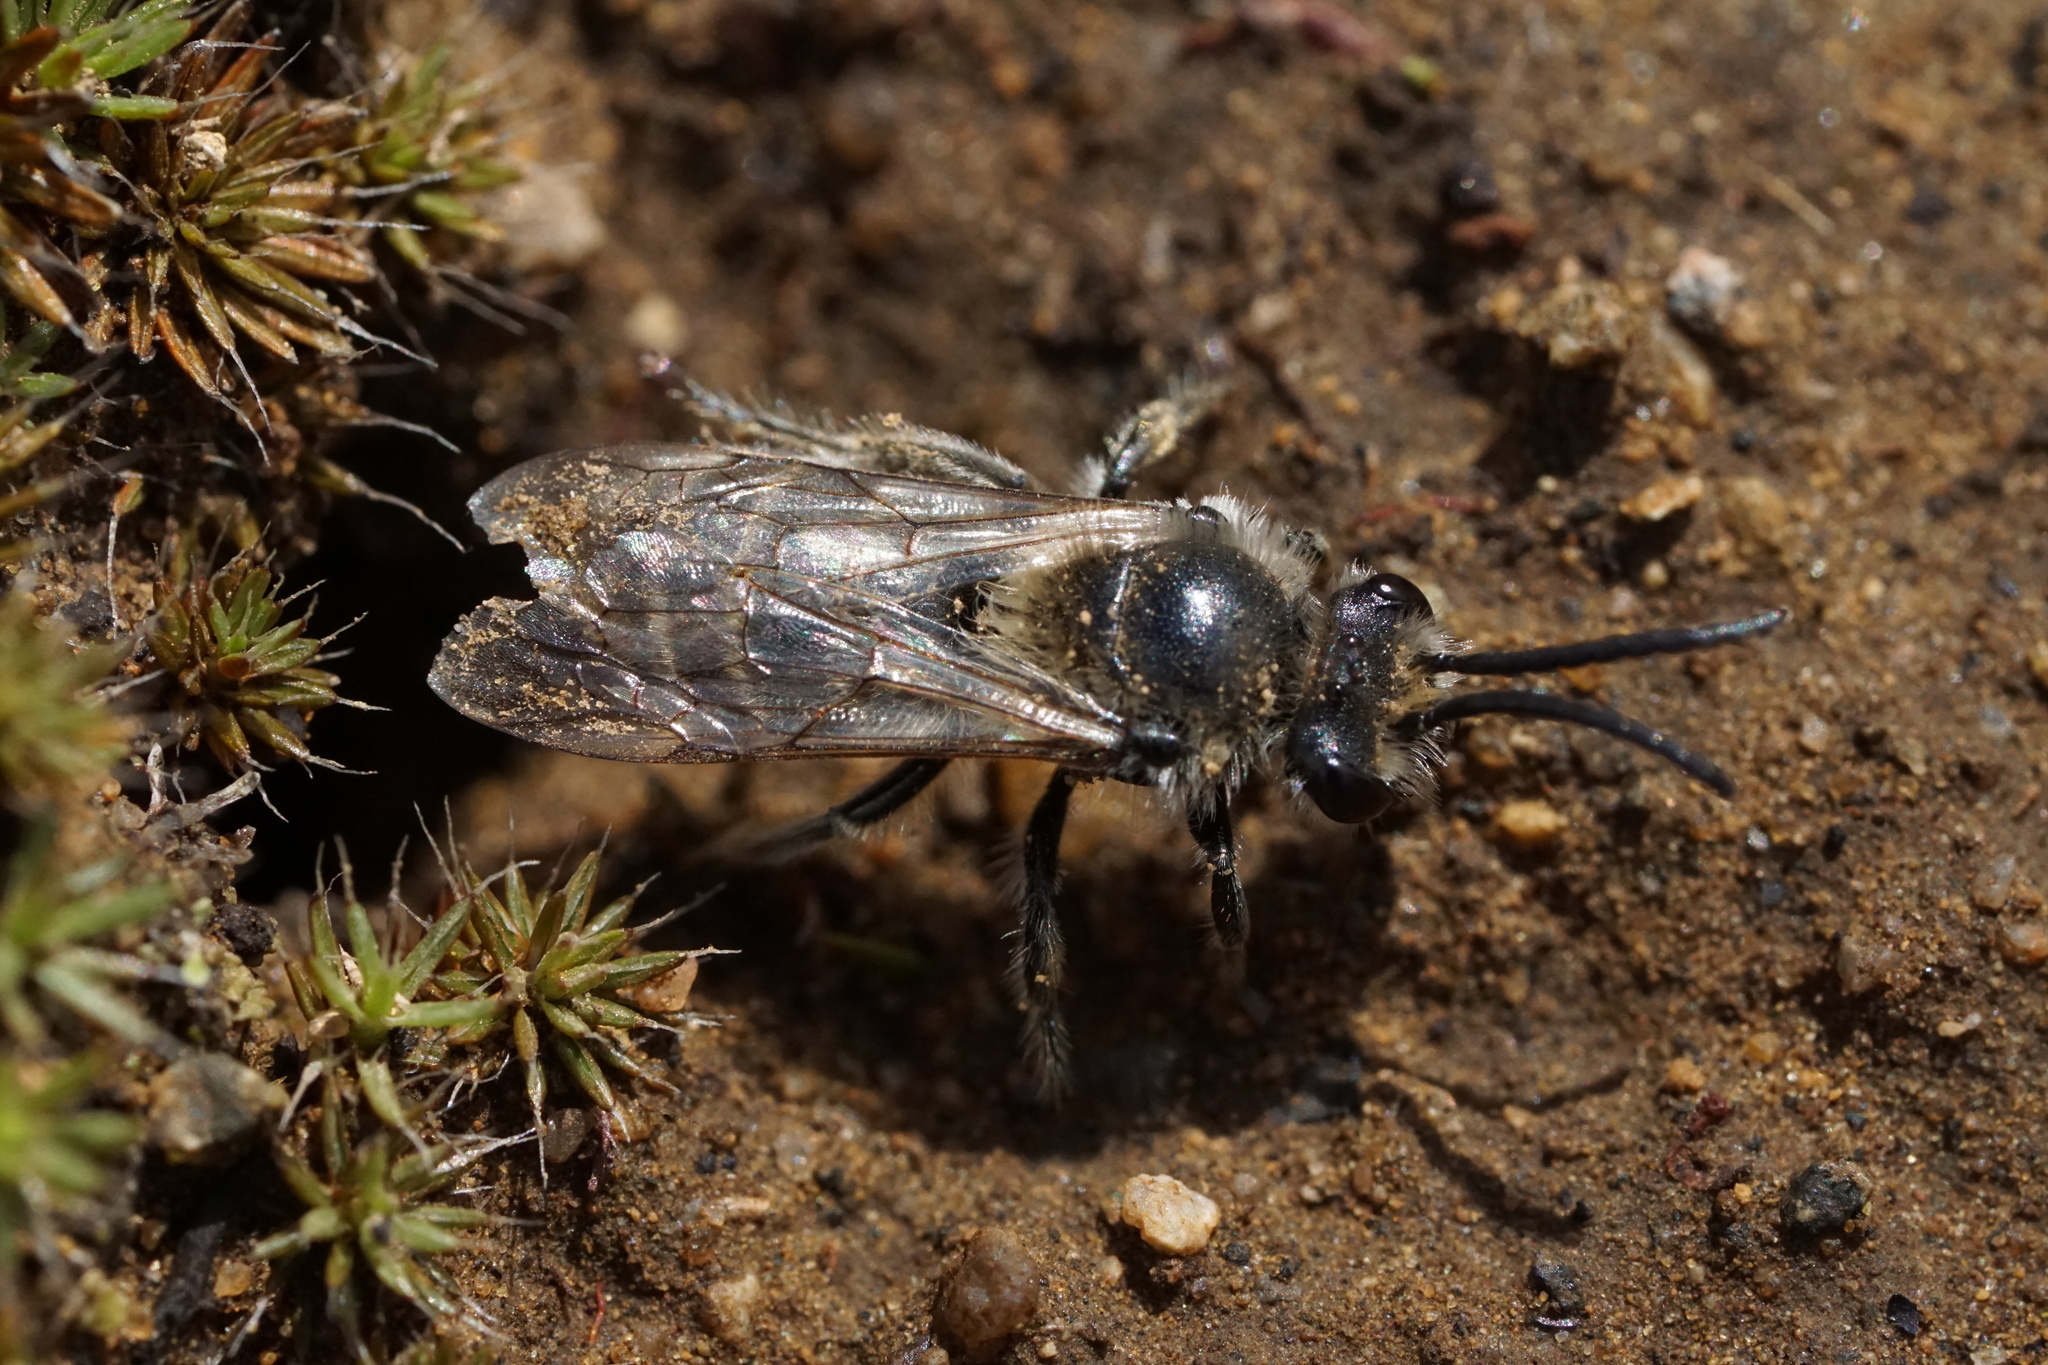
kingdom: Animalia
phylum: Arthropoda
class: Insecta
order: Hymenoptera
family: Colletidae
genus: Colletes
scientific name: Colletes inaequalis
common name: Unequal cellophane bee
